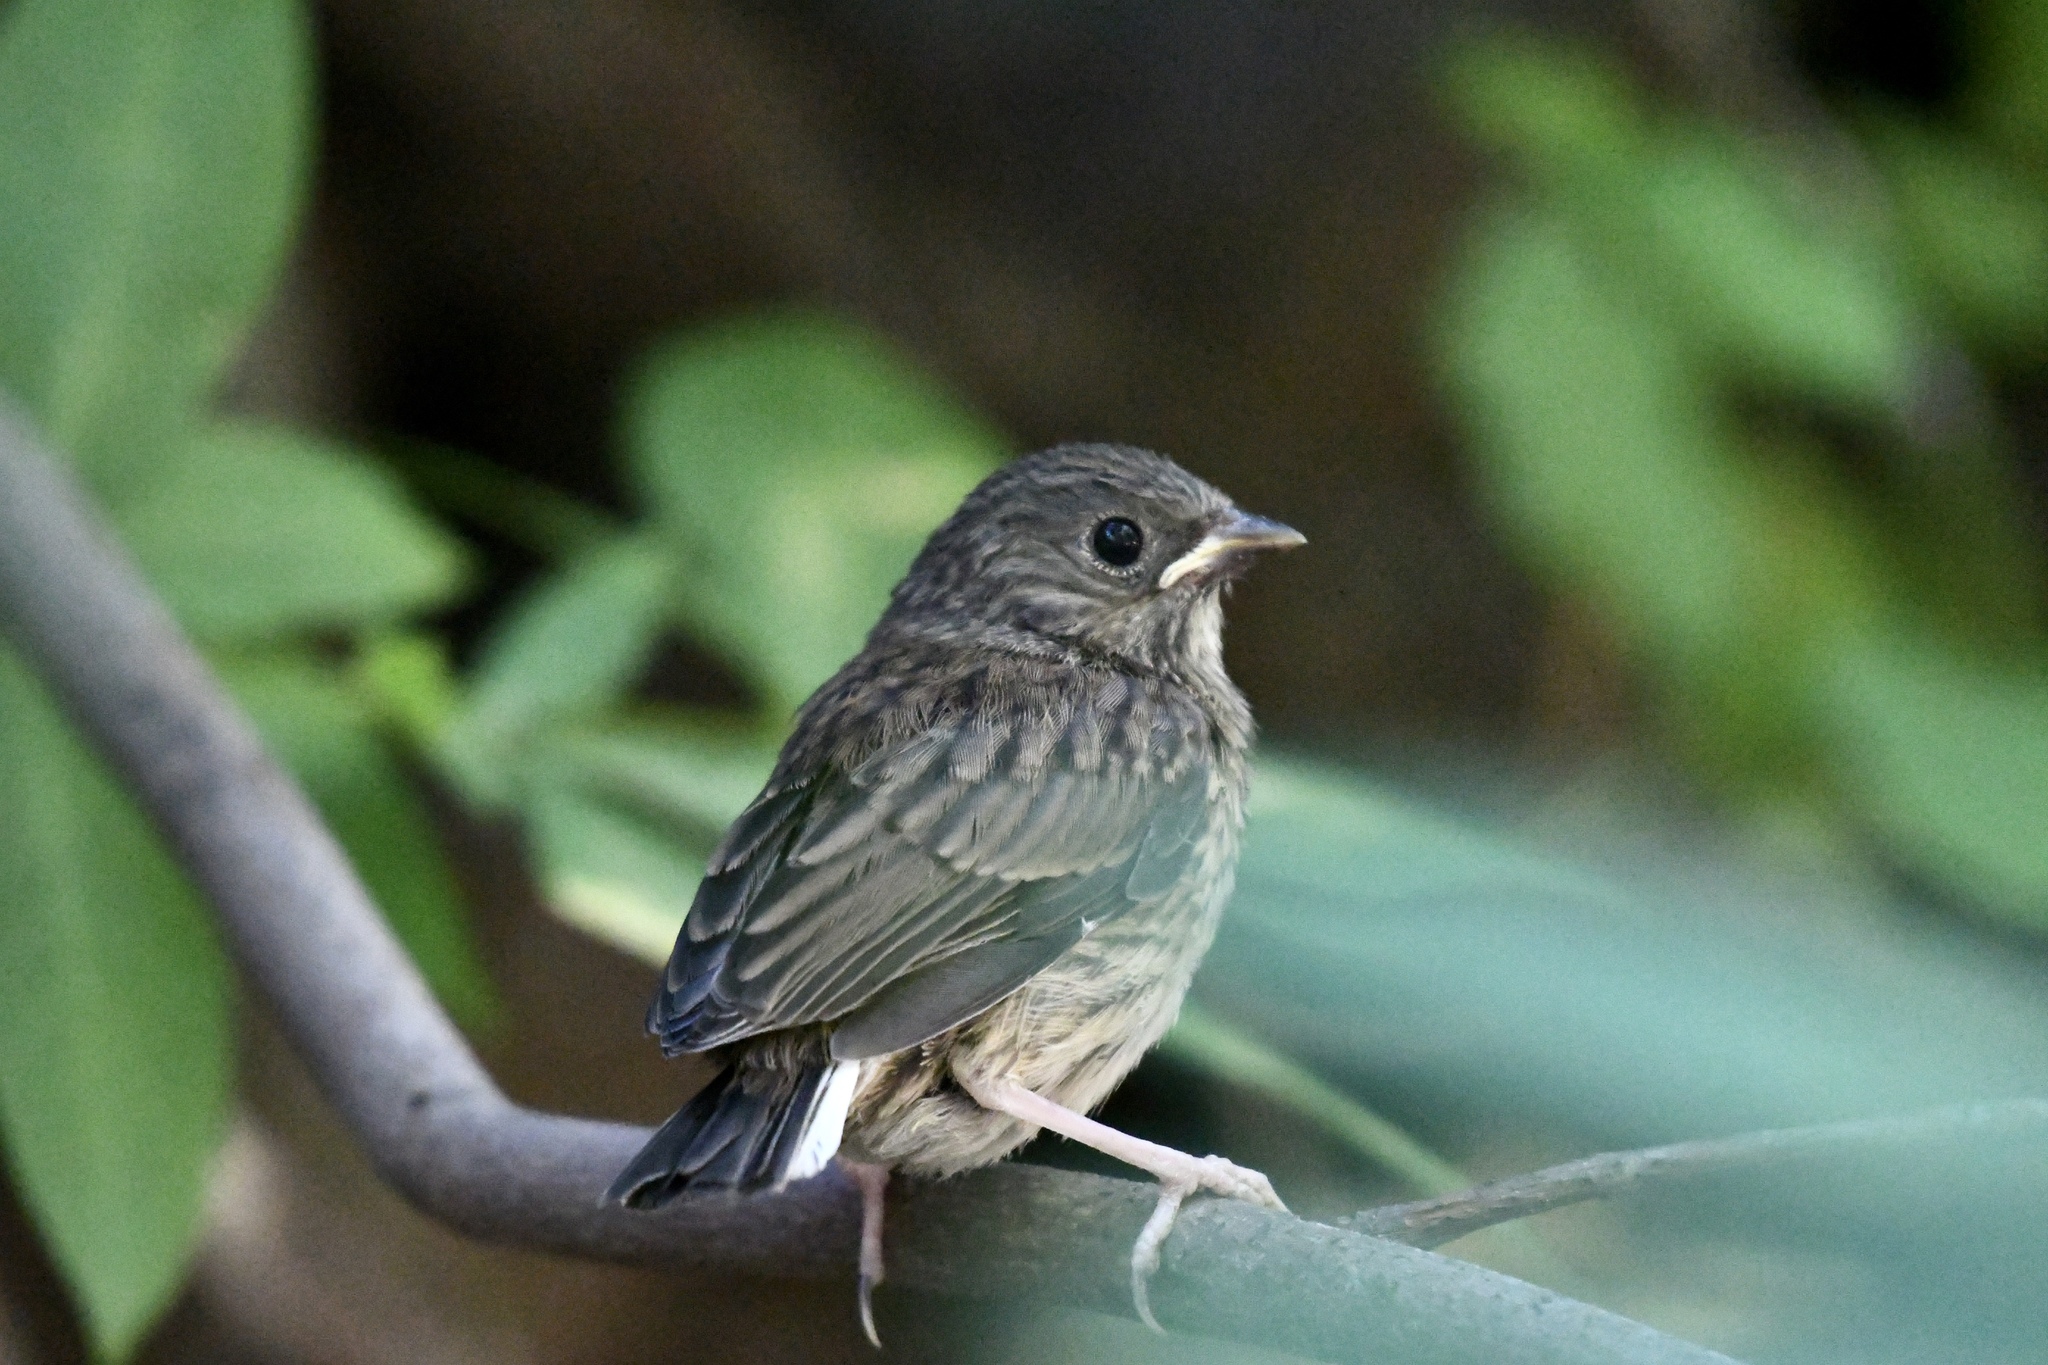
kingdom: Animalia
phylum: Chordata
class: Aves
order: Passeriformes
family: Passerellidae
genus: Junco
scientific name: Junco hyemalis
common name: Dark-eyed junco
